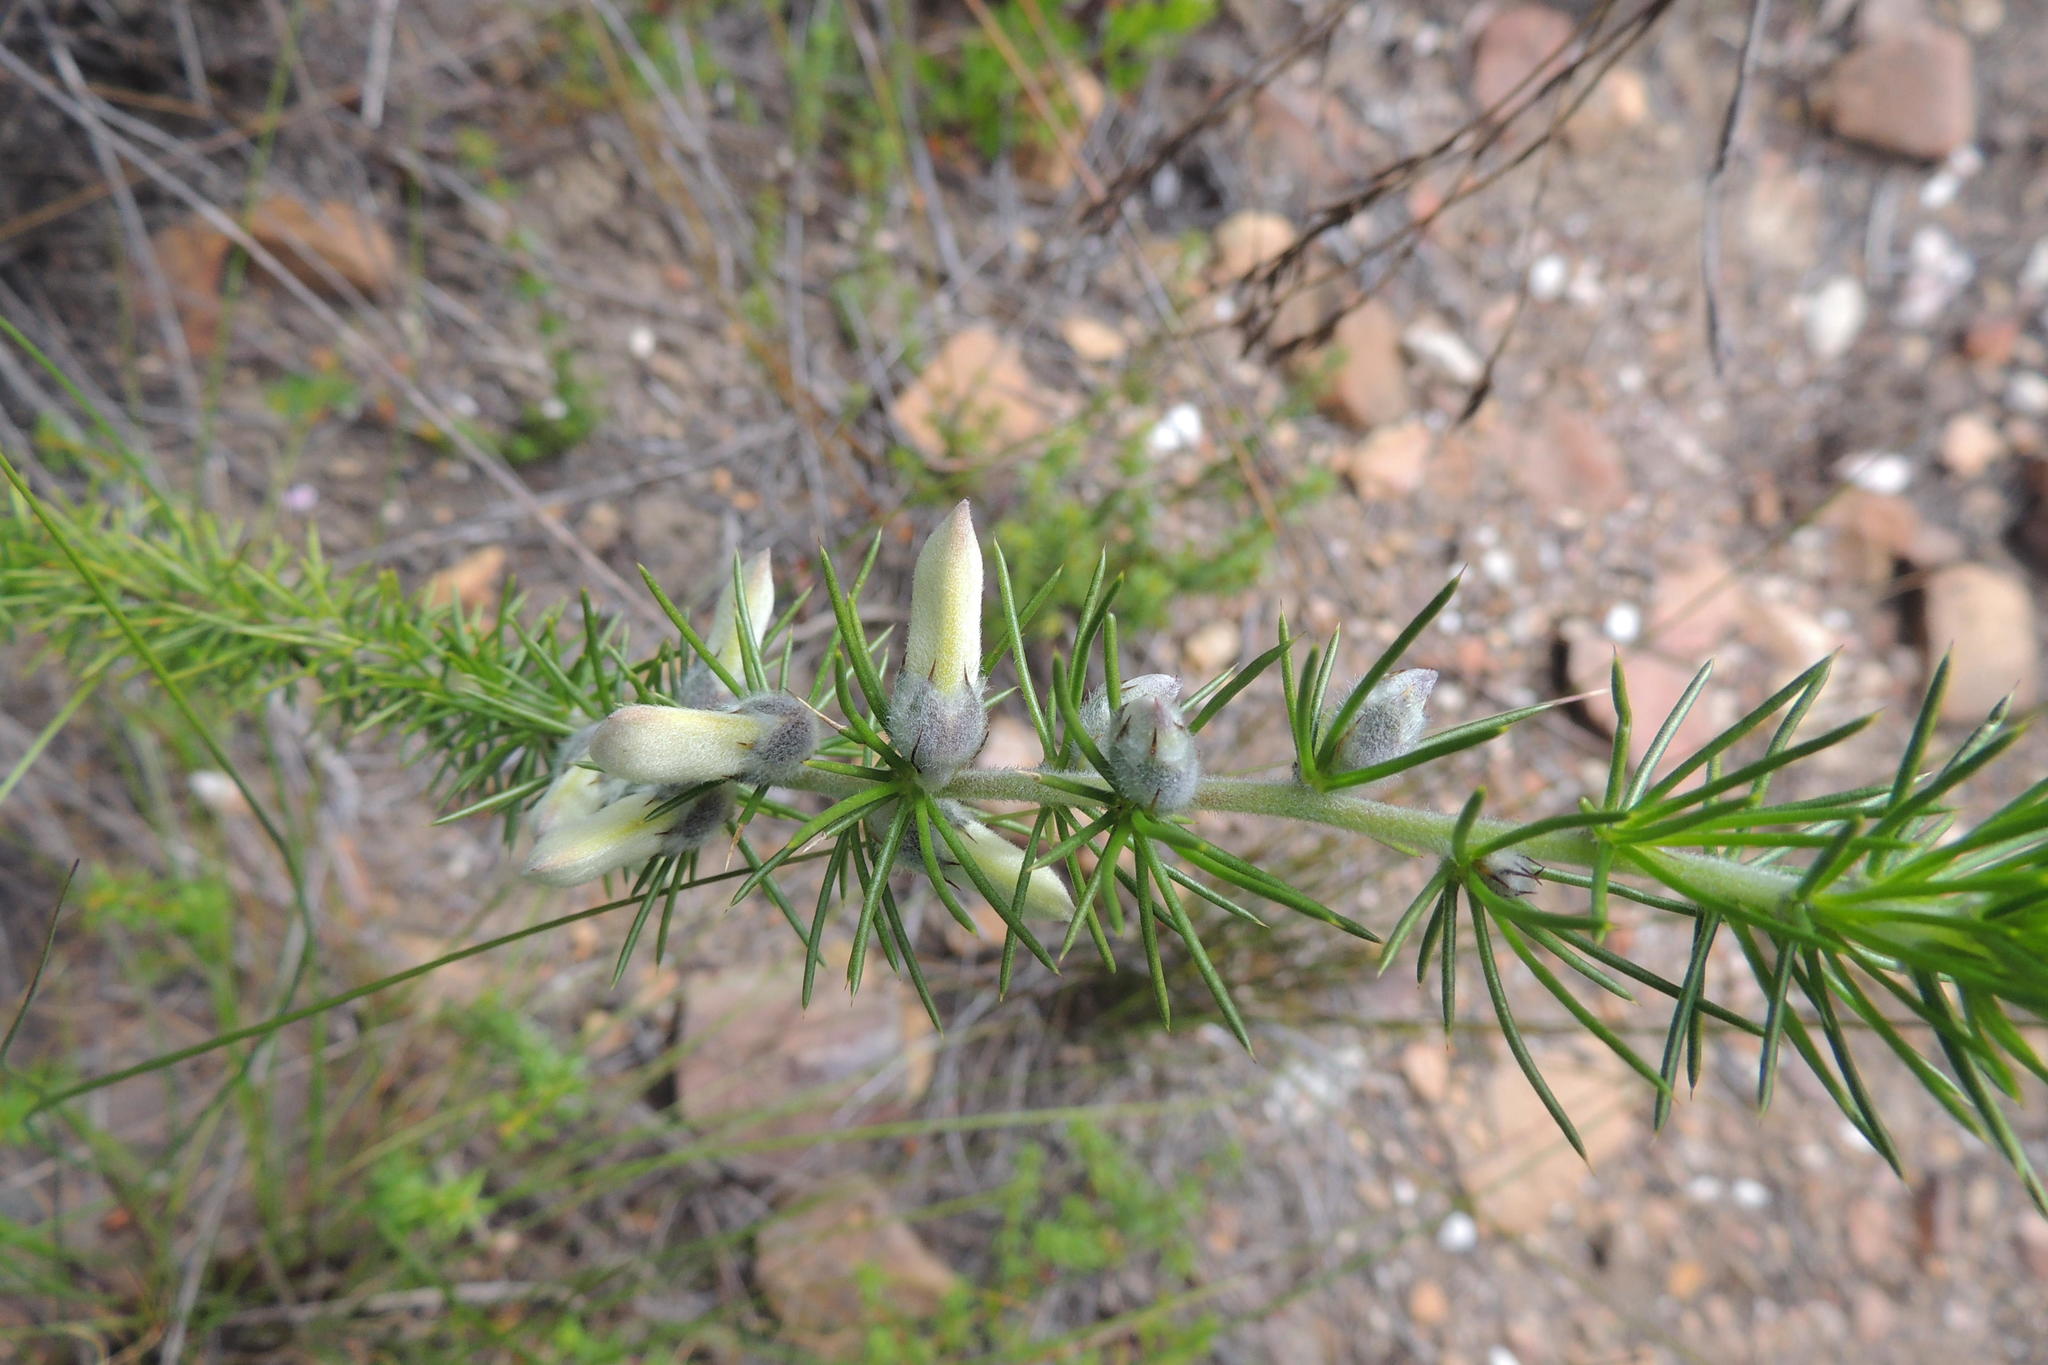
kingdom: Plantae
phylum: Tracheophyta
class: Magnoliopsida
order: Fabales
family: Fabaceae
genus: Aspalathus
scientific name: Aspalathus hirta
